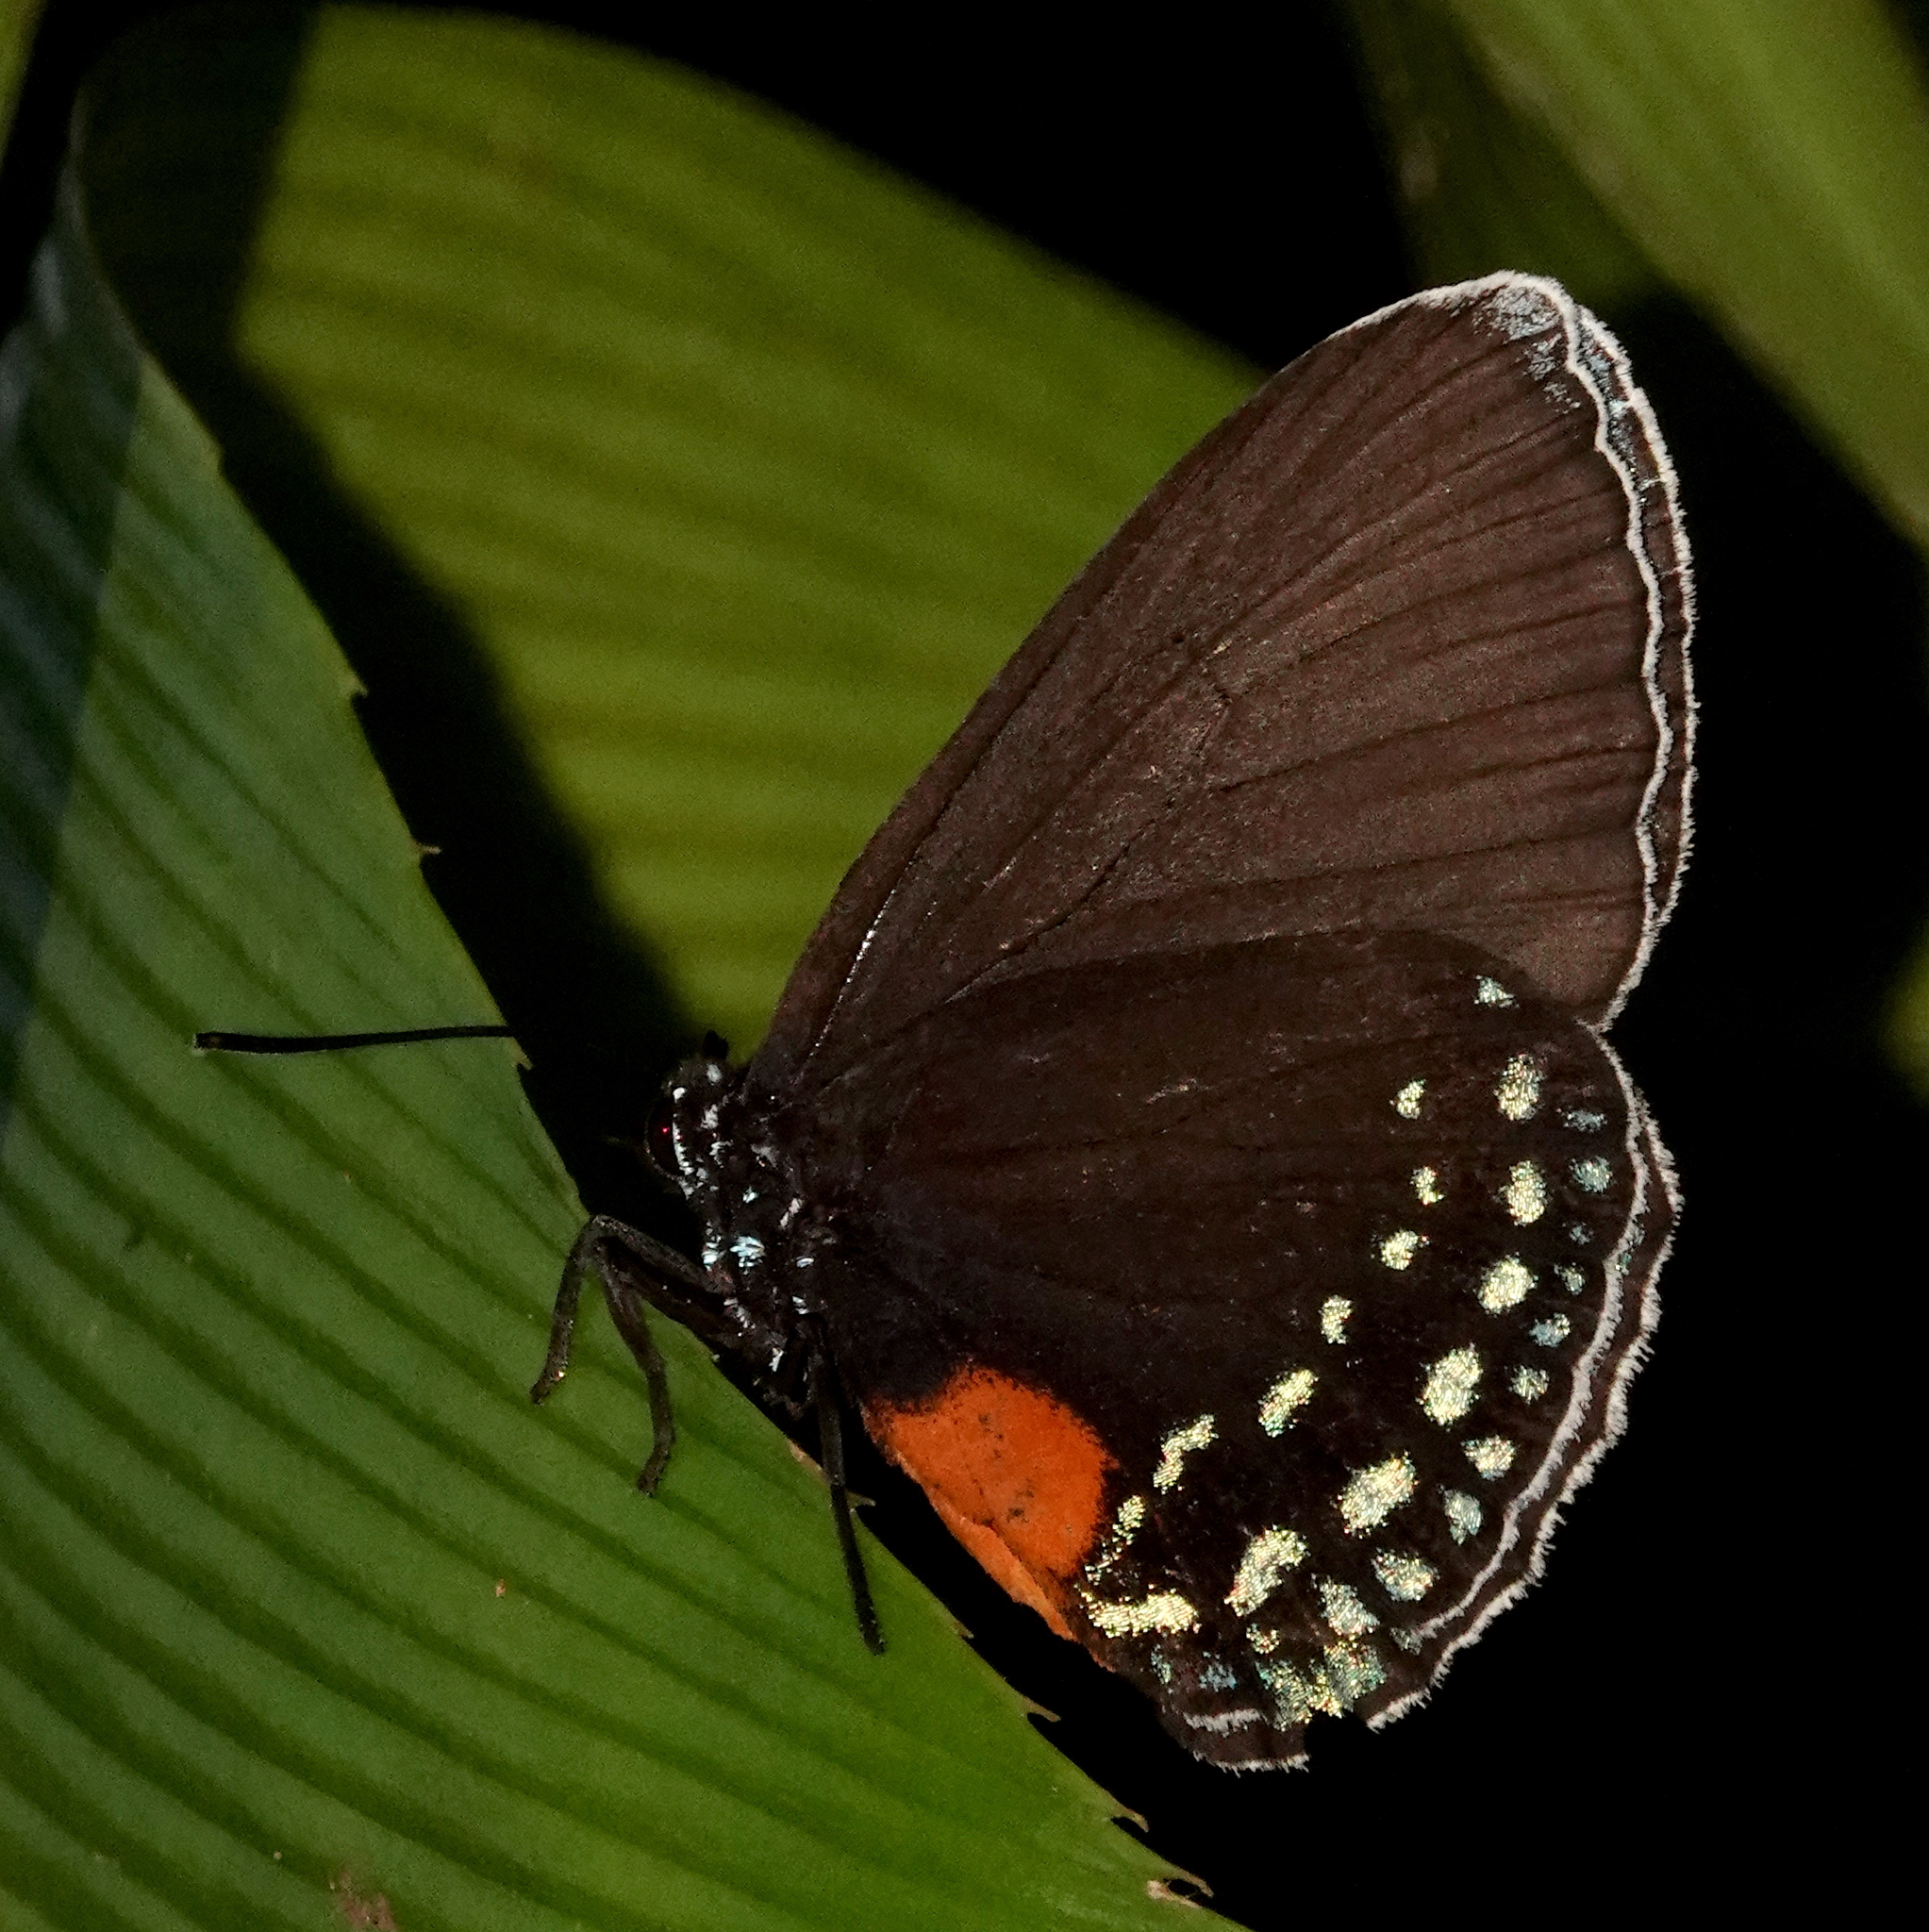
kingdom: Animalia
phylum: Arthropoda
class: Insecta
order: Lepidoptera
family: Lycaenidae
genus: Eumaeus
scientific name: Eumaeus godartii
